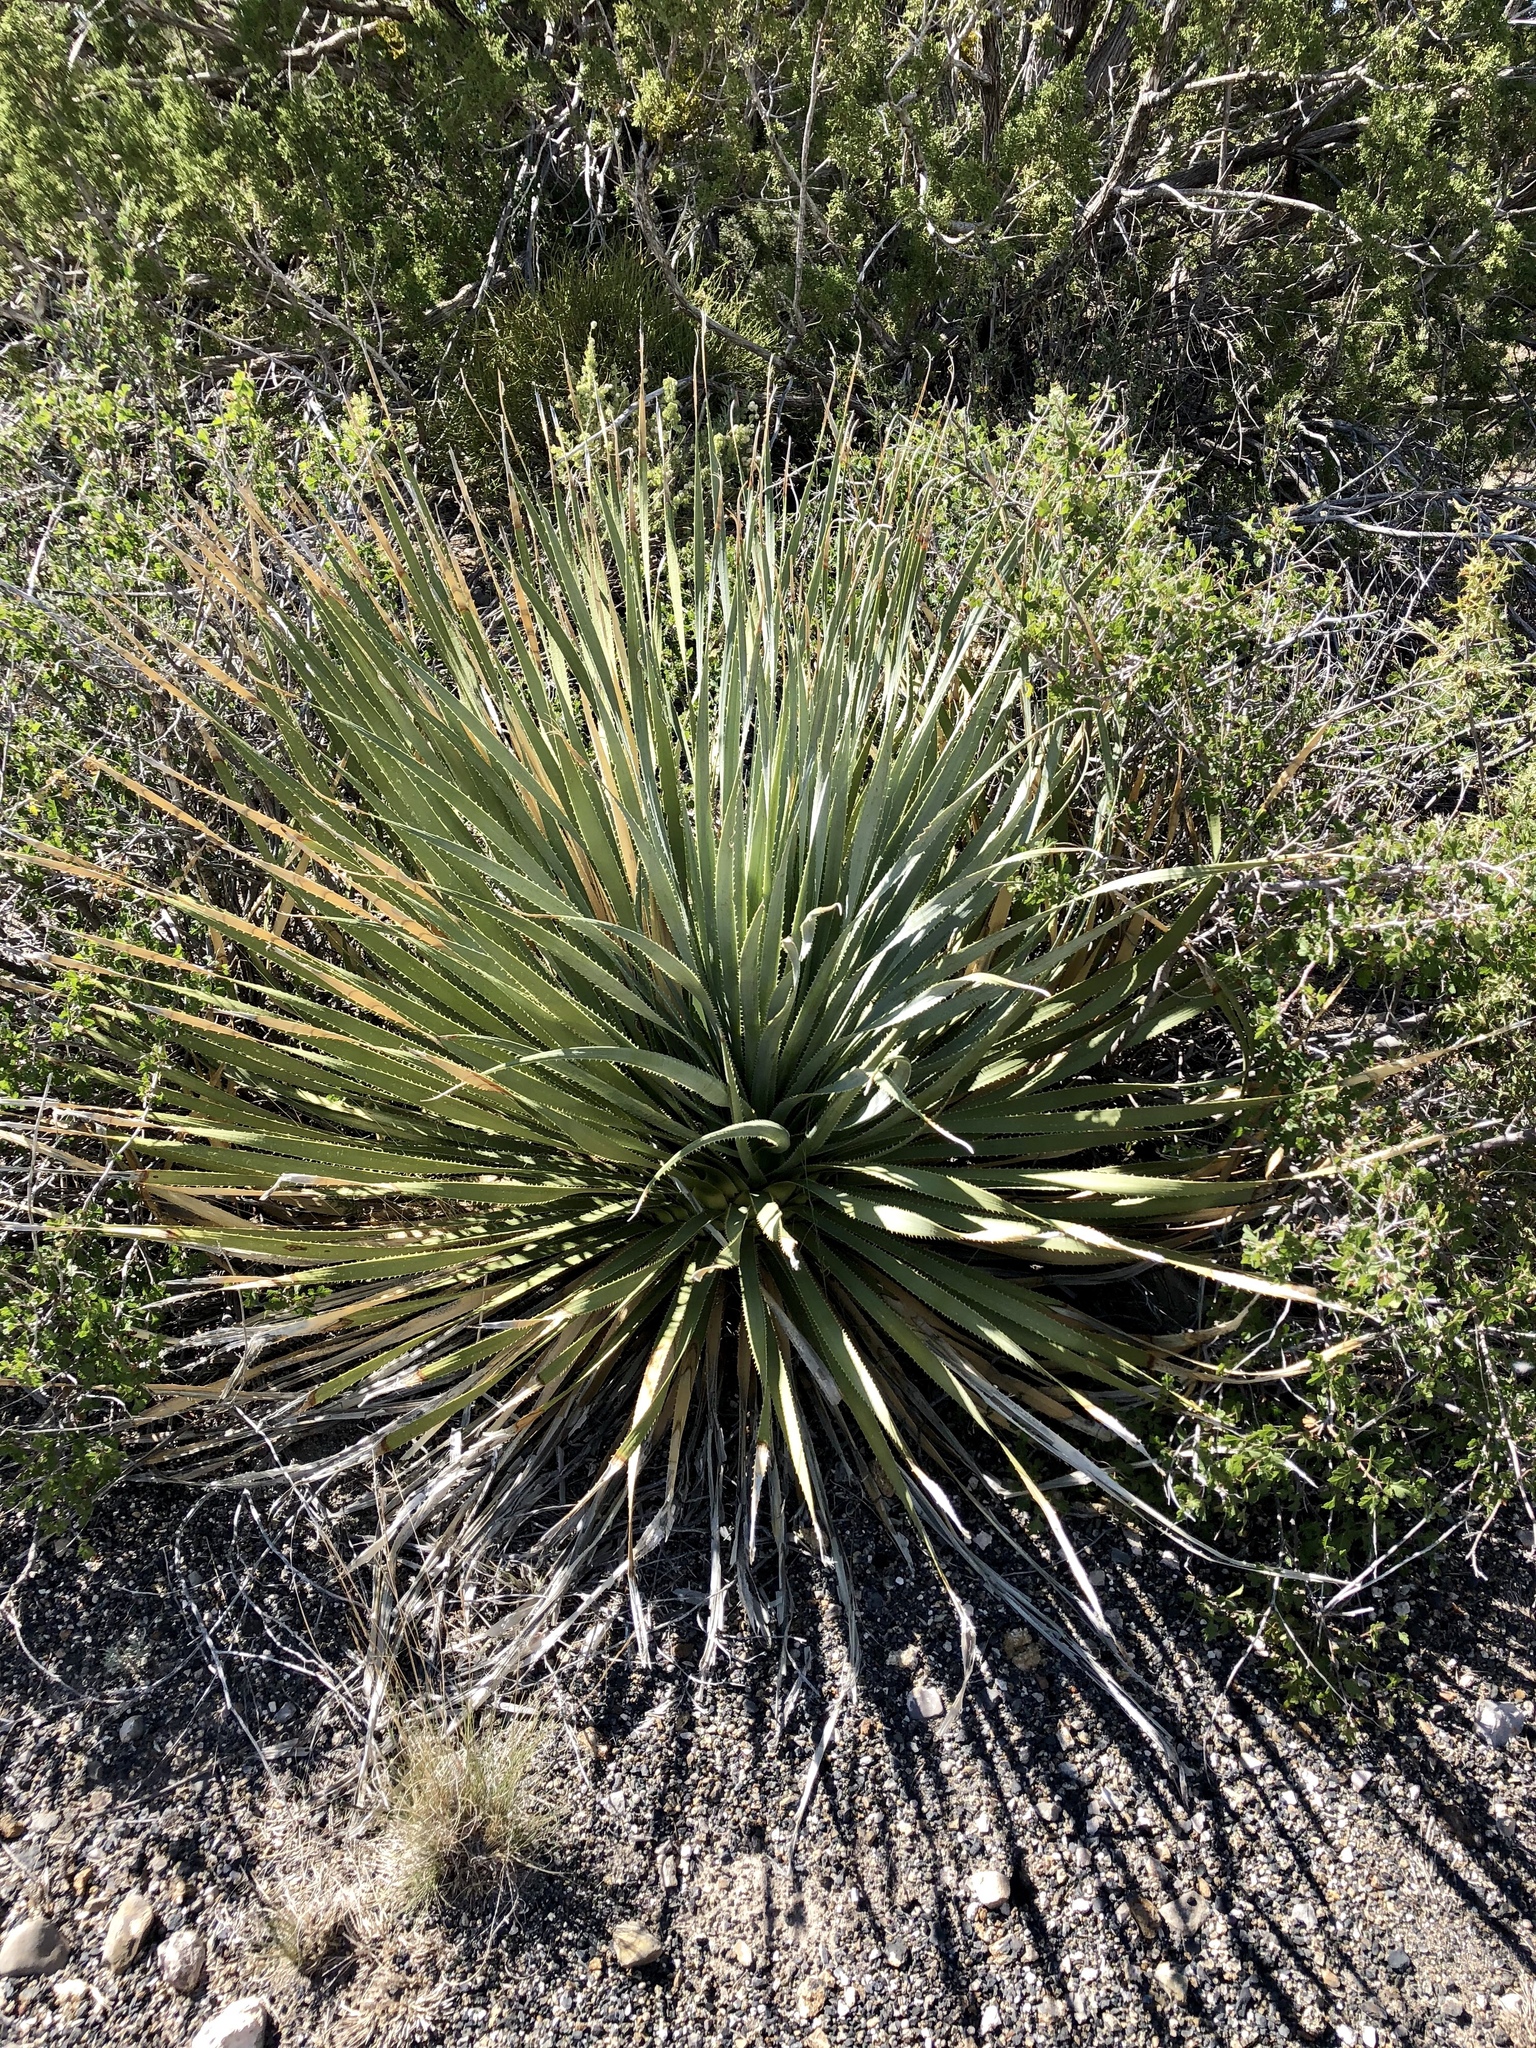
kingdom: Plantae
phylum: Tracheophyta
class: Liliopsida
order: Asparagales
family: Asparagaceae
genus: Dasylirion
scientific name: Dasylirion wheeleri
